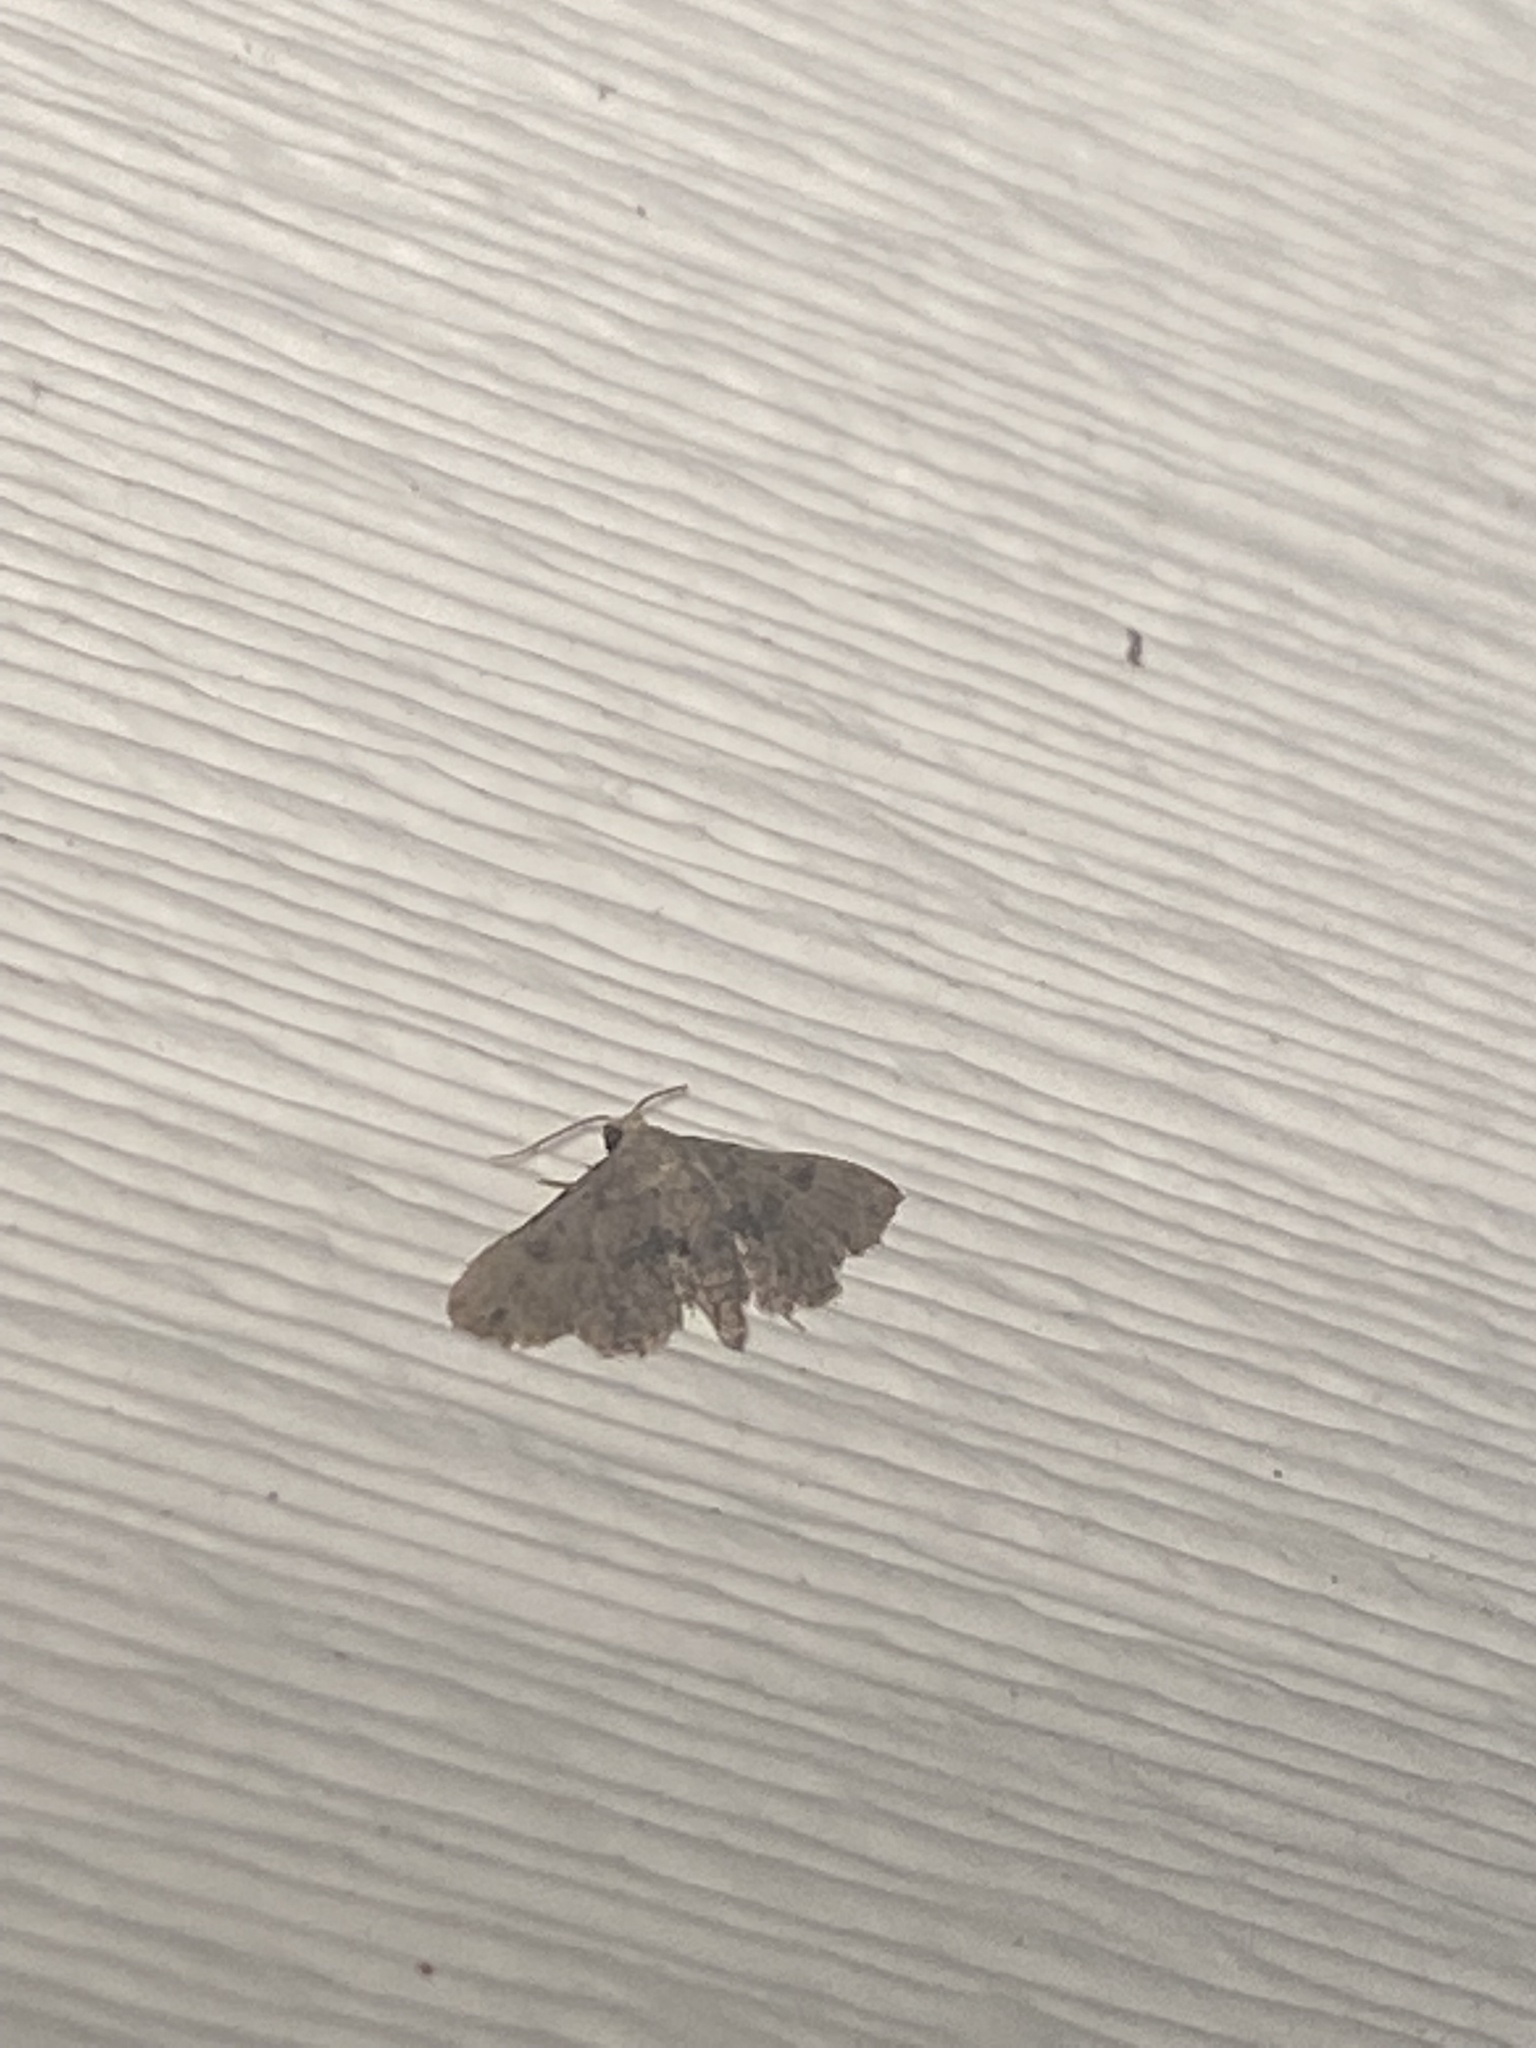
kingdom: Animalia
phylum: Arthropoda
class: Insecta
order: Lepidoptera
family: Erebidae
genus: Sigela
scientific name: Sigela brauneata
